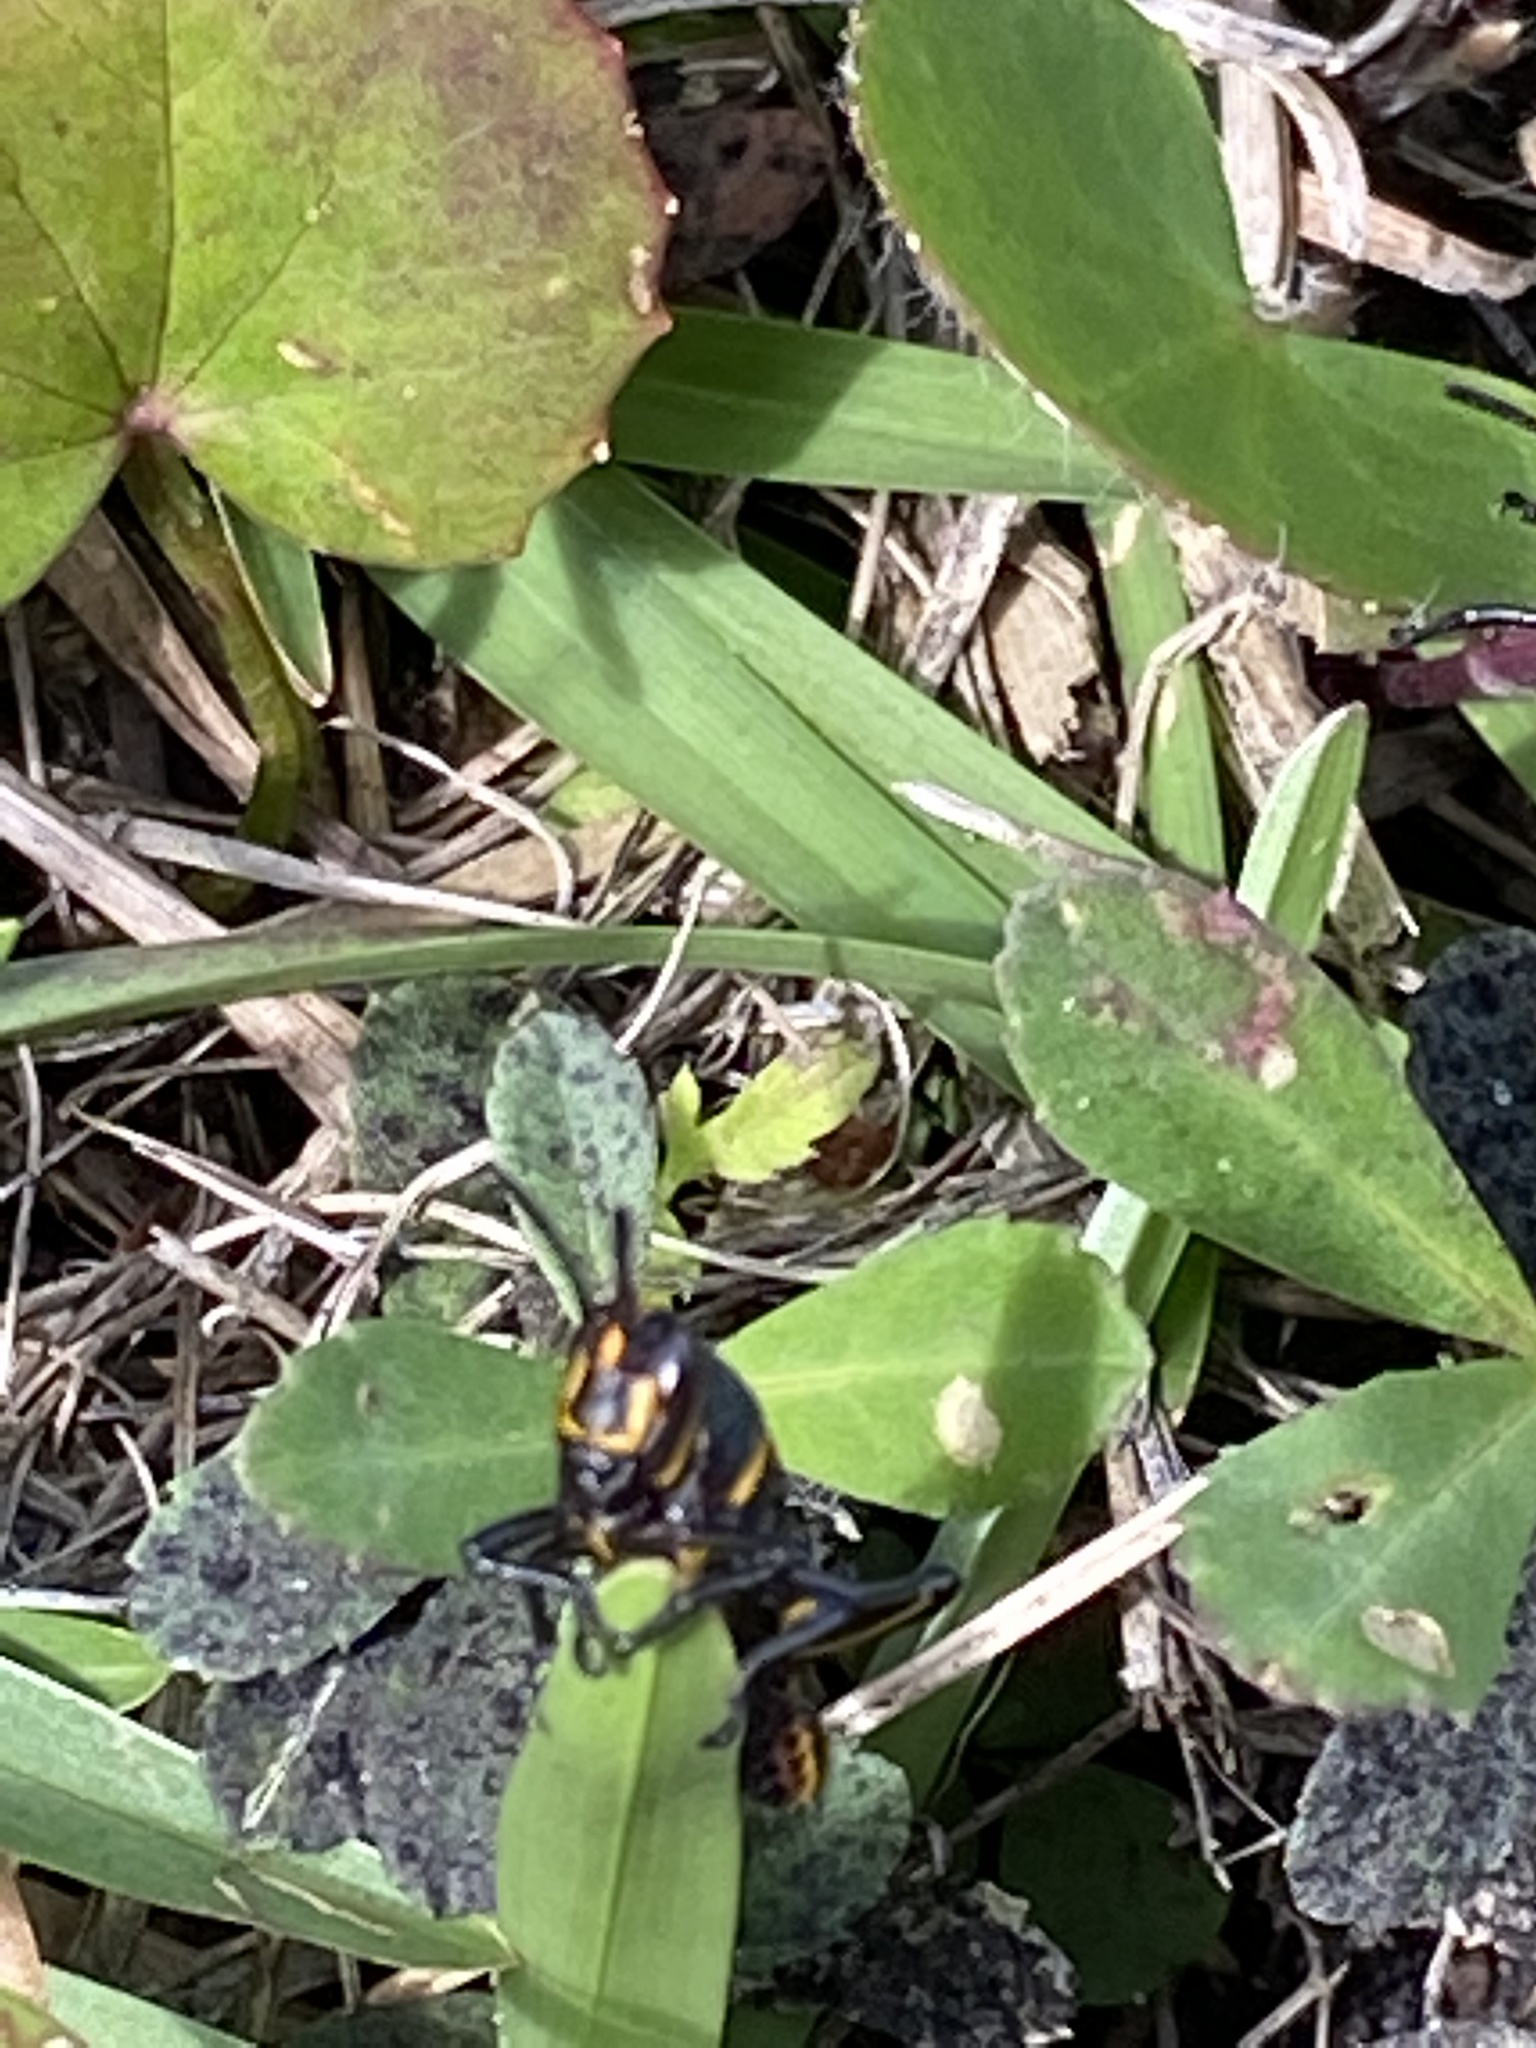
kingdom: Animalia
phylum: Arthropoda
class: Insecta
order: Orthoptera
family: Romaleidae
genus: Romalea
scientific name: Romalea microptera
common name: Eastern lubber grasshopper
